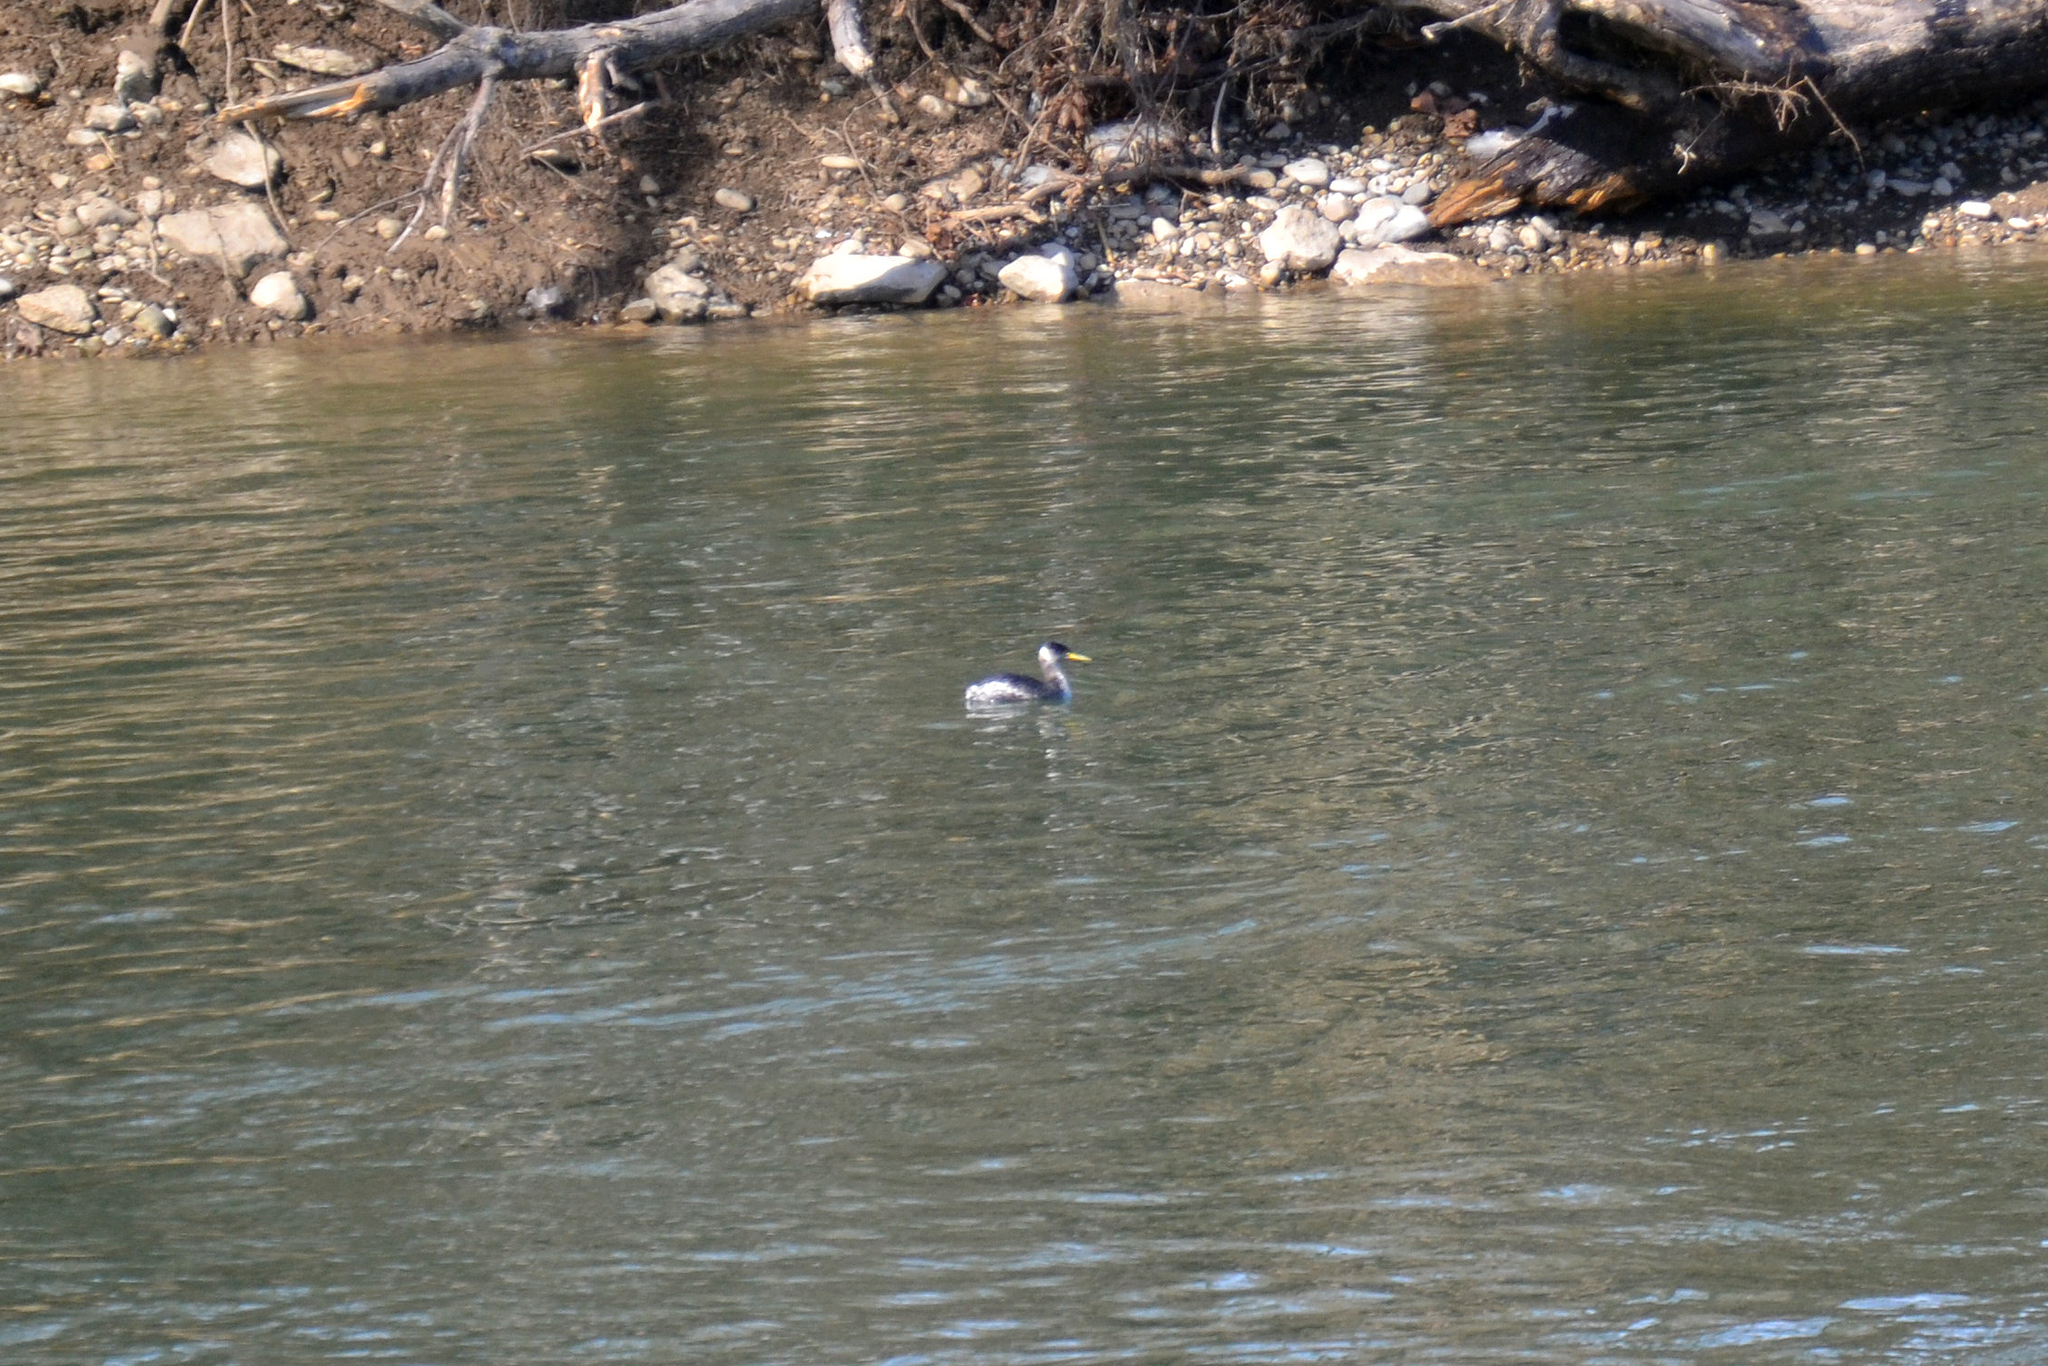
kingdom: Animalia
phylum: Chordata
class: Aves
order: Podicipediformes
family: Podicipedidae
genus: Podiceps
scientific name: Podiceps grisegena
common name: Red-necked grebe
